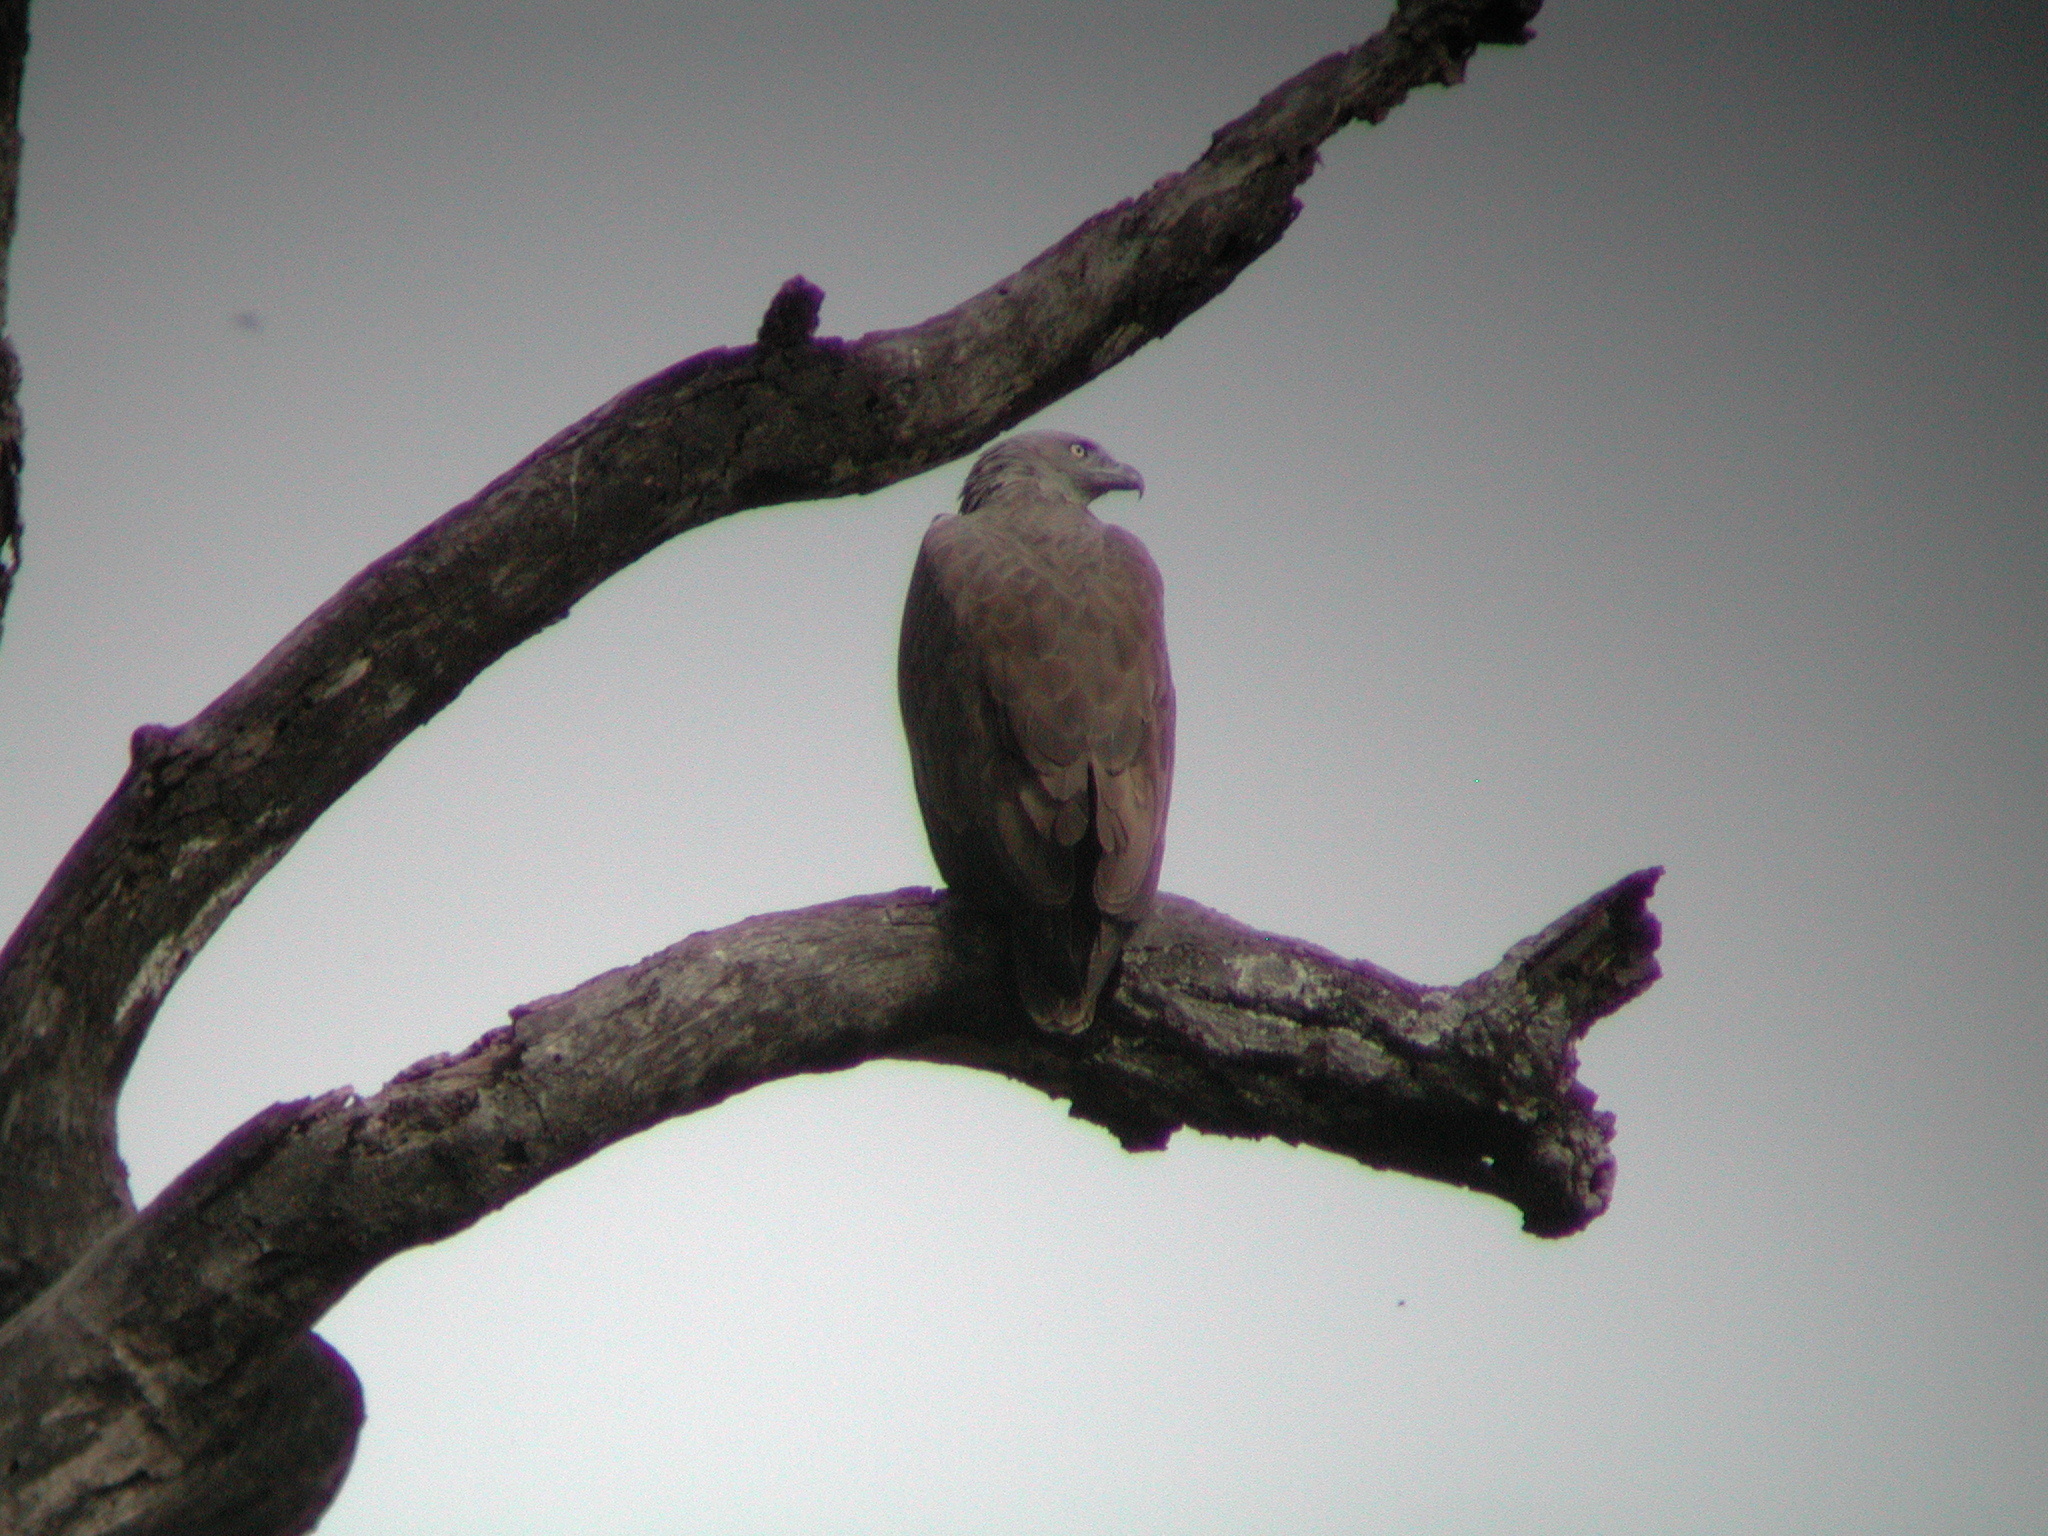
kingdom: Animalia
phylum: Chordata
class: Aves
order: Accipitriformes
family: Accipitridae
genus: Icthyophaga
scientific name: Icthyophaga humilis
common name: Lesser fish-eagle
